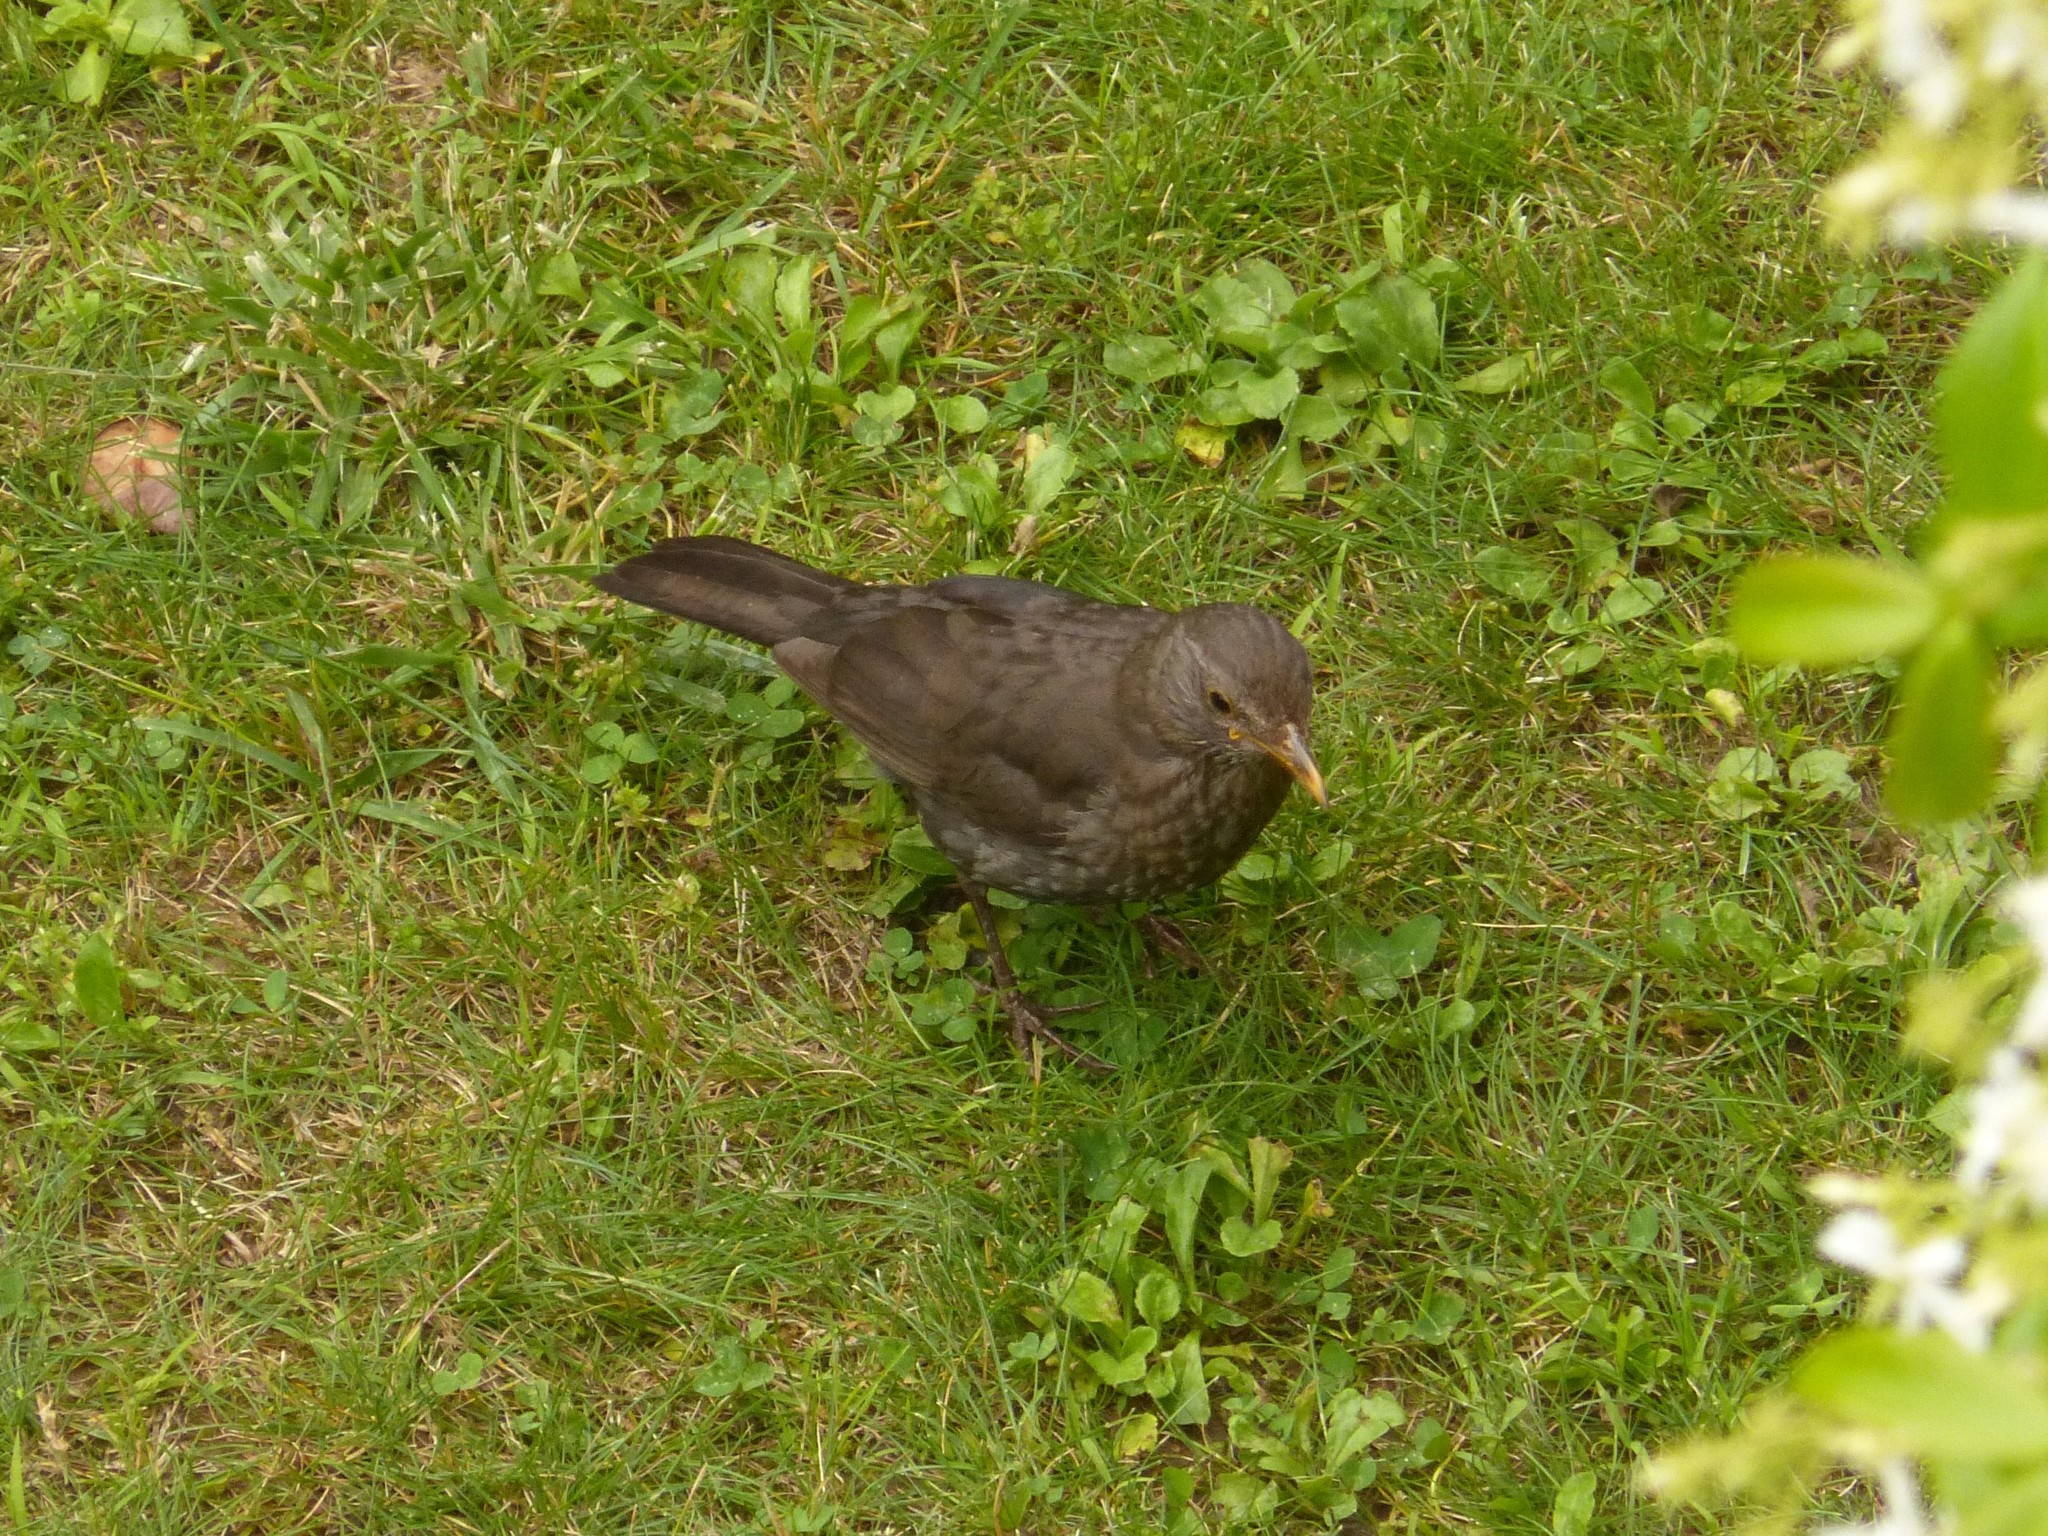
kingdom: Animalia
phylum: Chordata
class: Aves
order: Passeriformes
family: Turdidae
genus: Turdus
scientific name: Turdus merula
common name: Common blackbird
